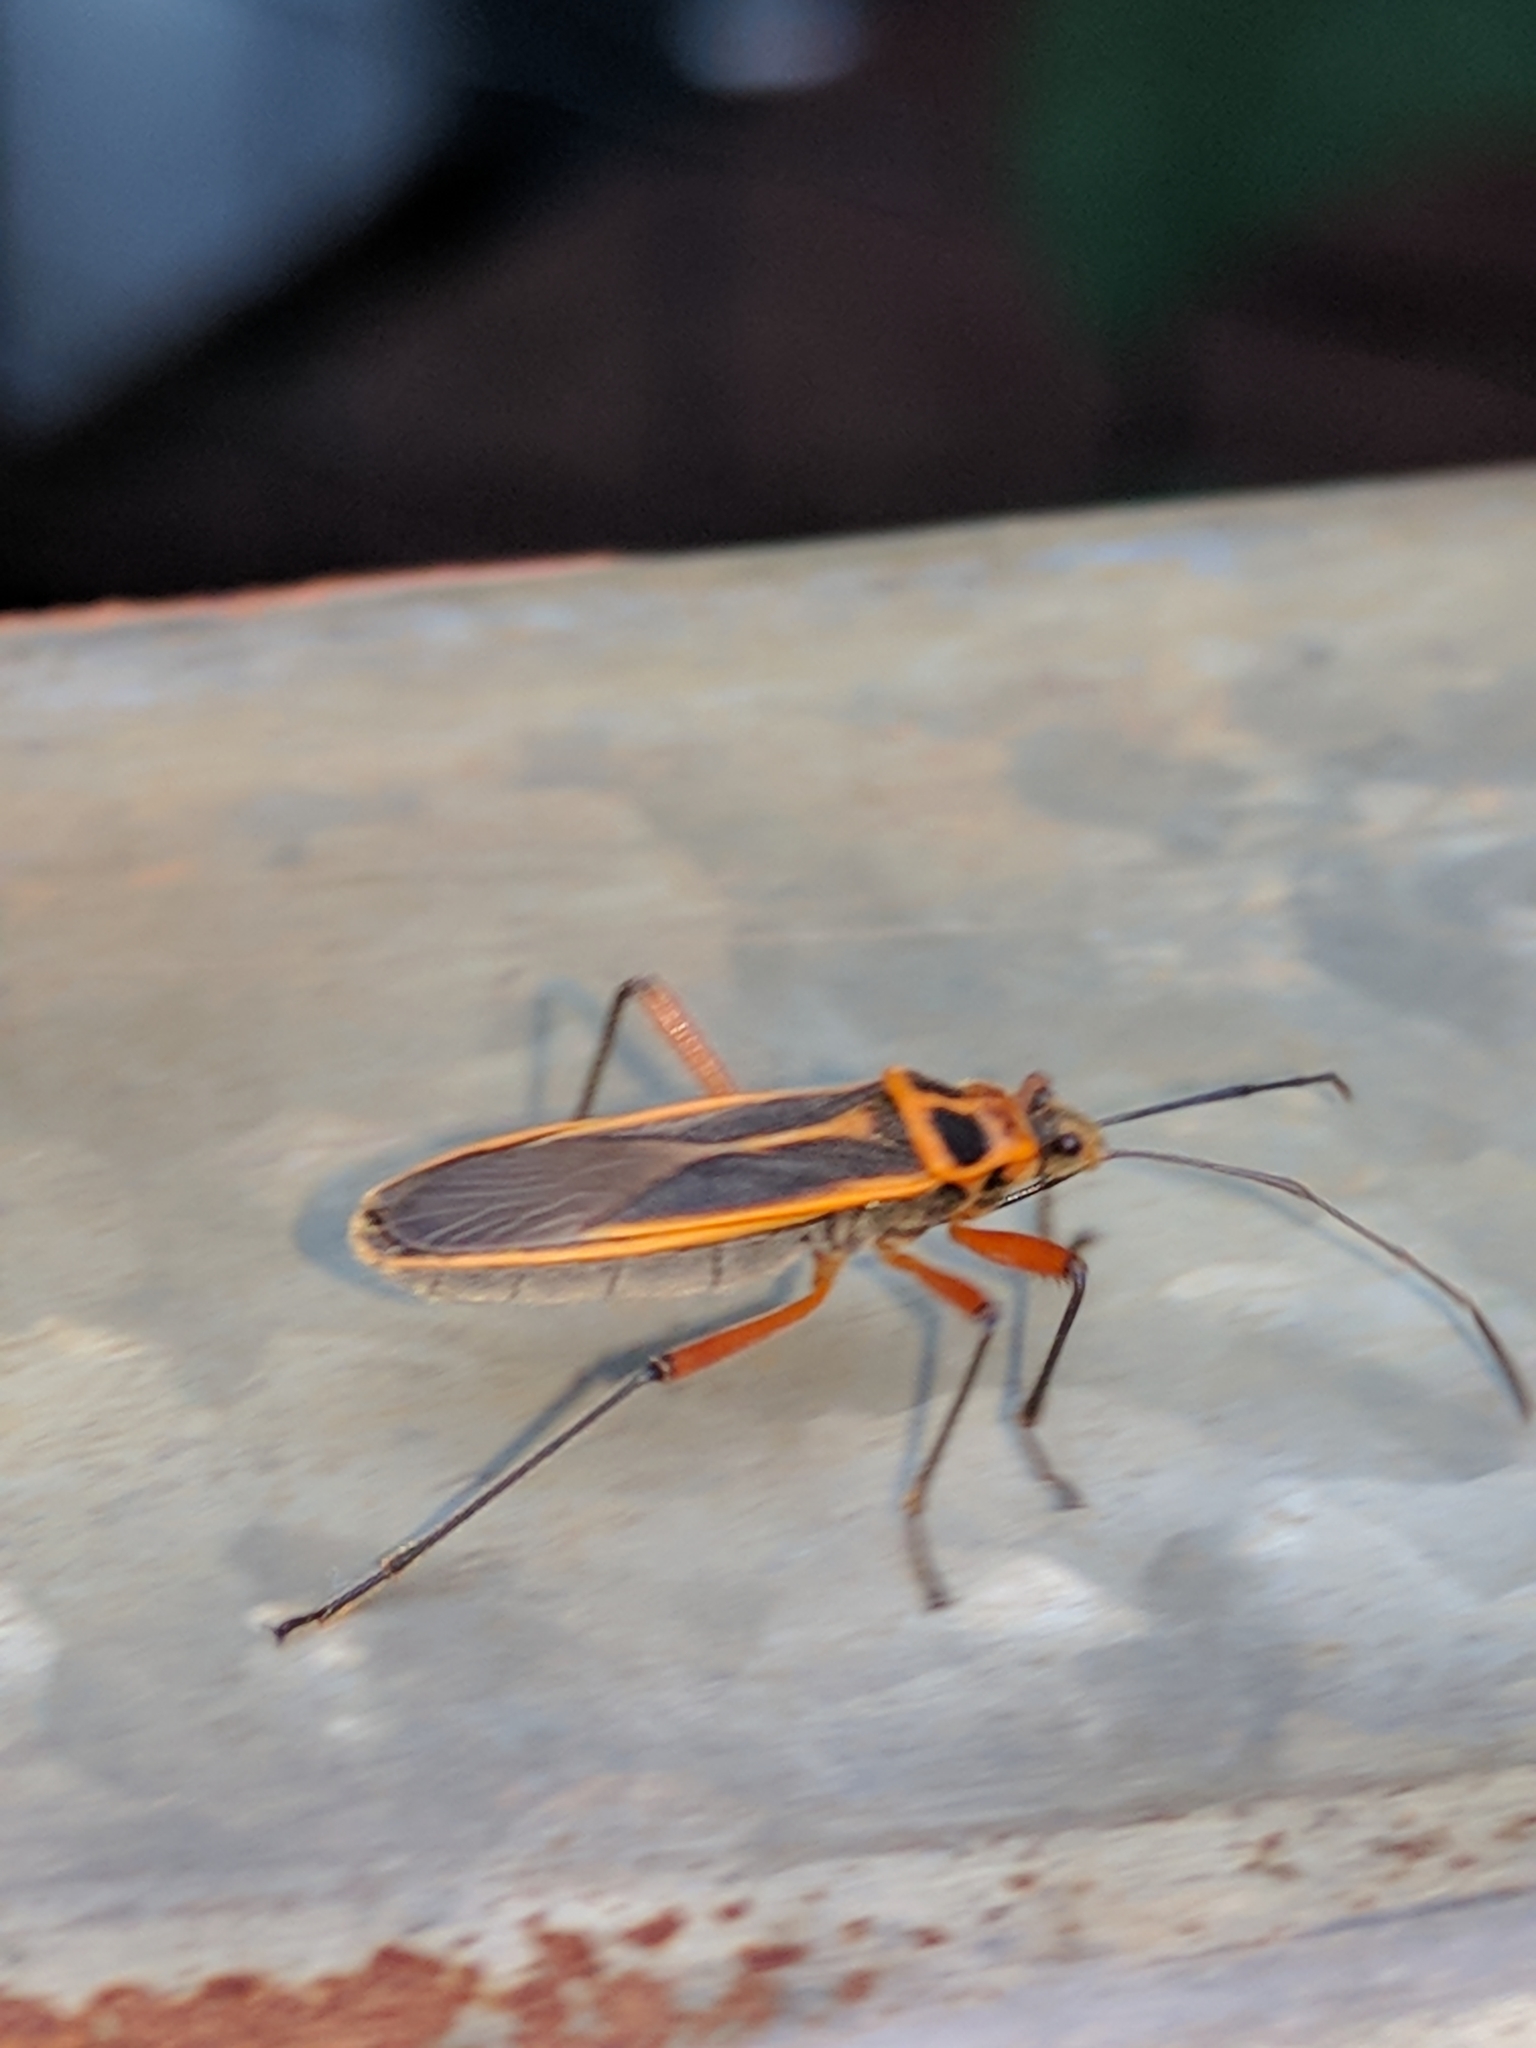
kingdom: Animalia
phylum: Arthropoda
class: Insecta
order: Hemiptera
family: Largidae
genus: Stenomacra
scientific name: Stenomacra marginella
